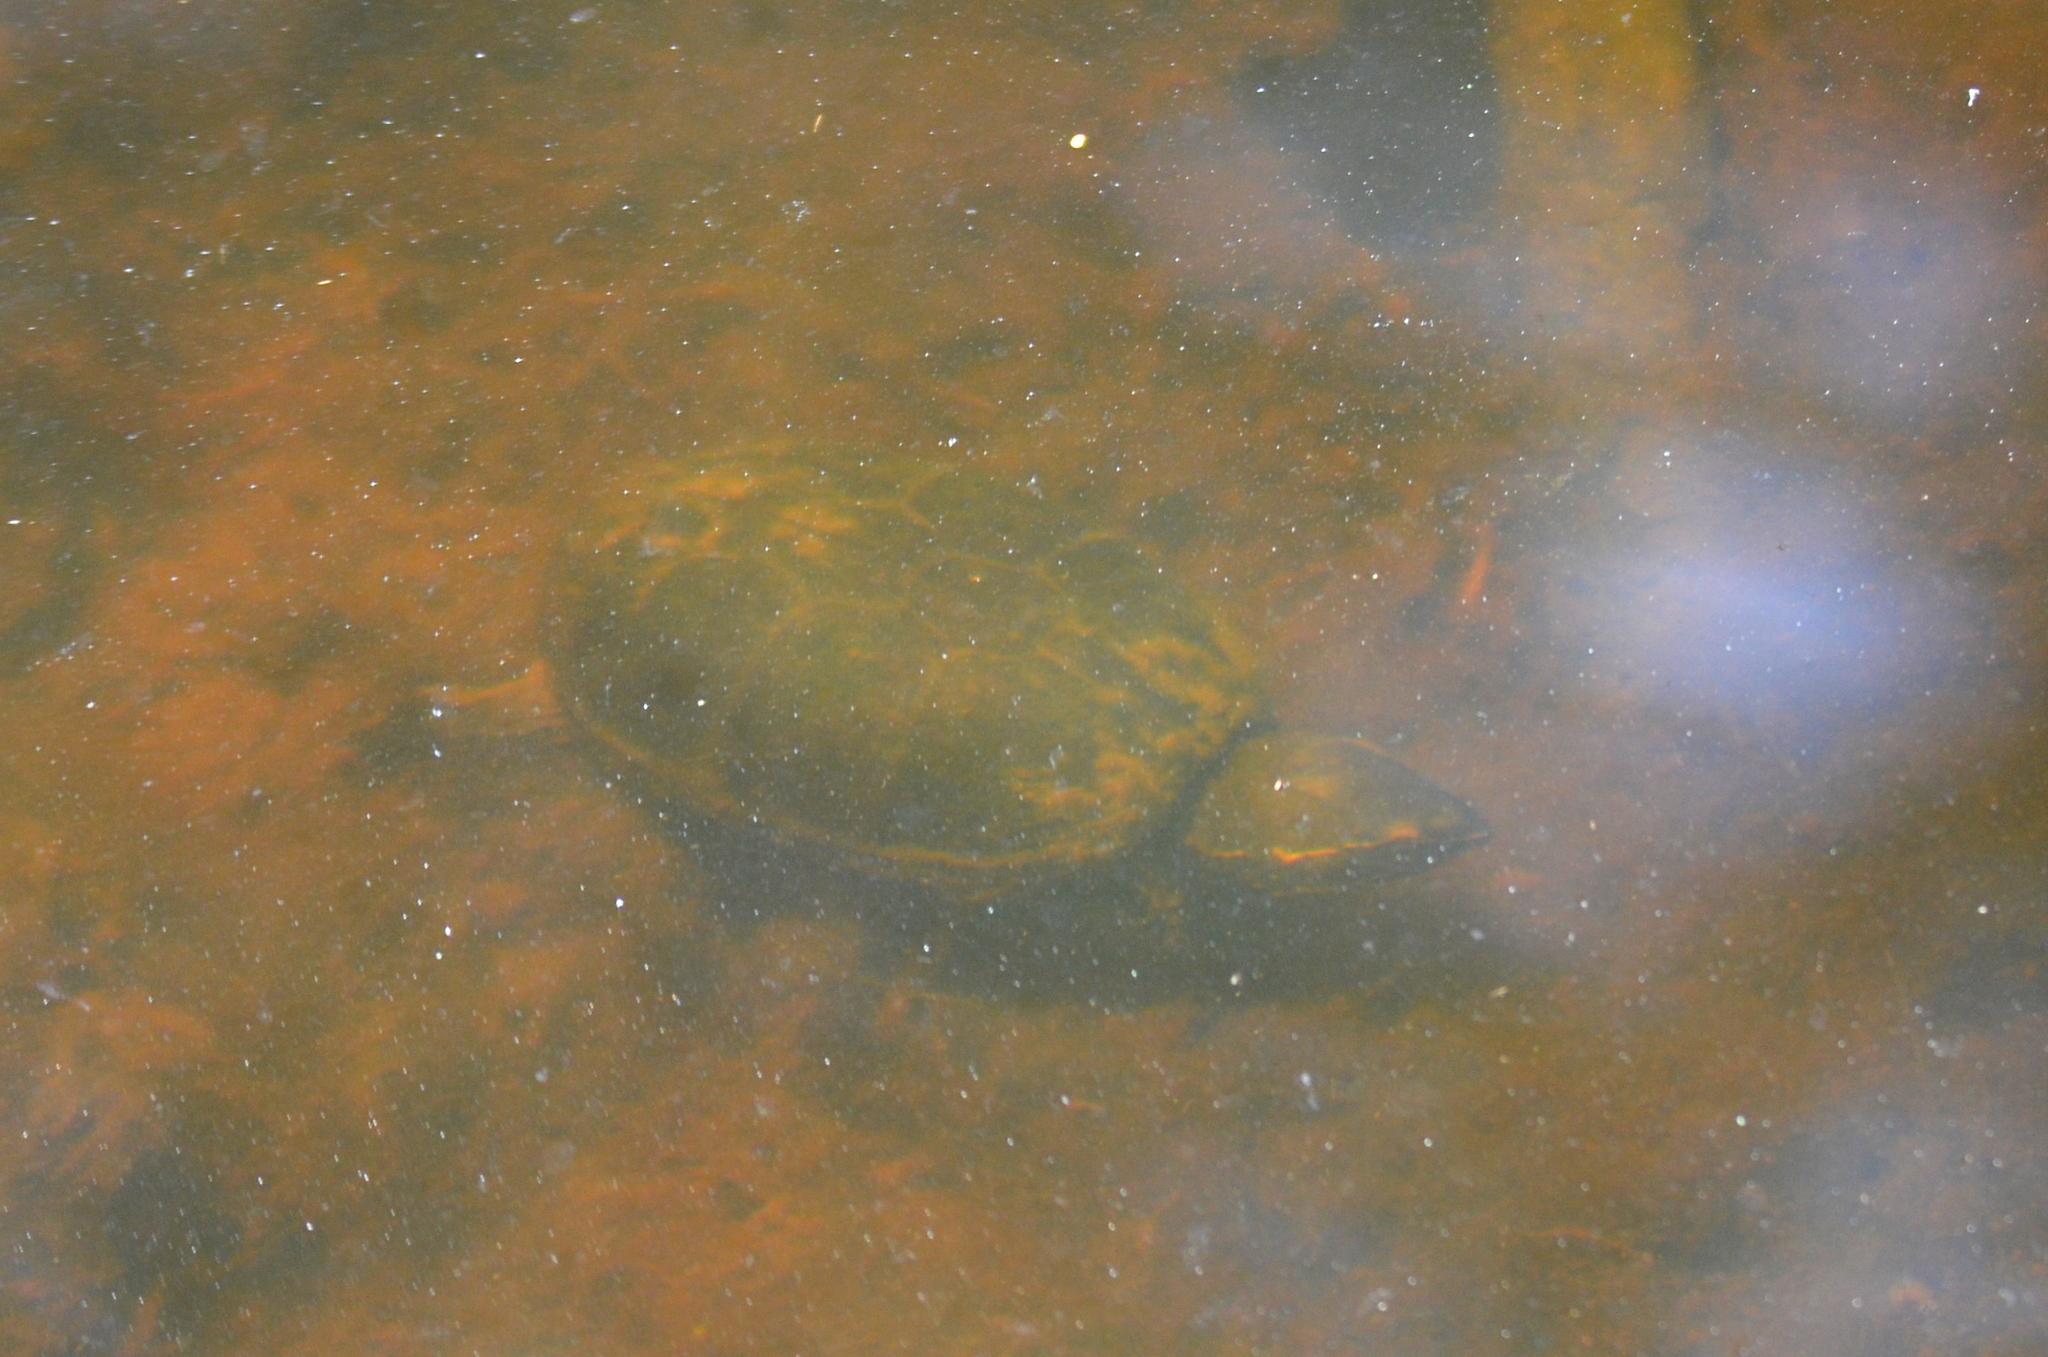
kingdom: Animalia
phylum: Chordata
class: Testudines
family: Kinosternidae
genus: Sternotherus
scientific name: Sternotherus odoratus
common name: Common musk turtle
